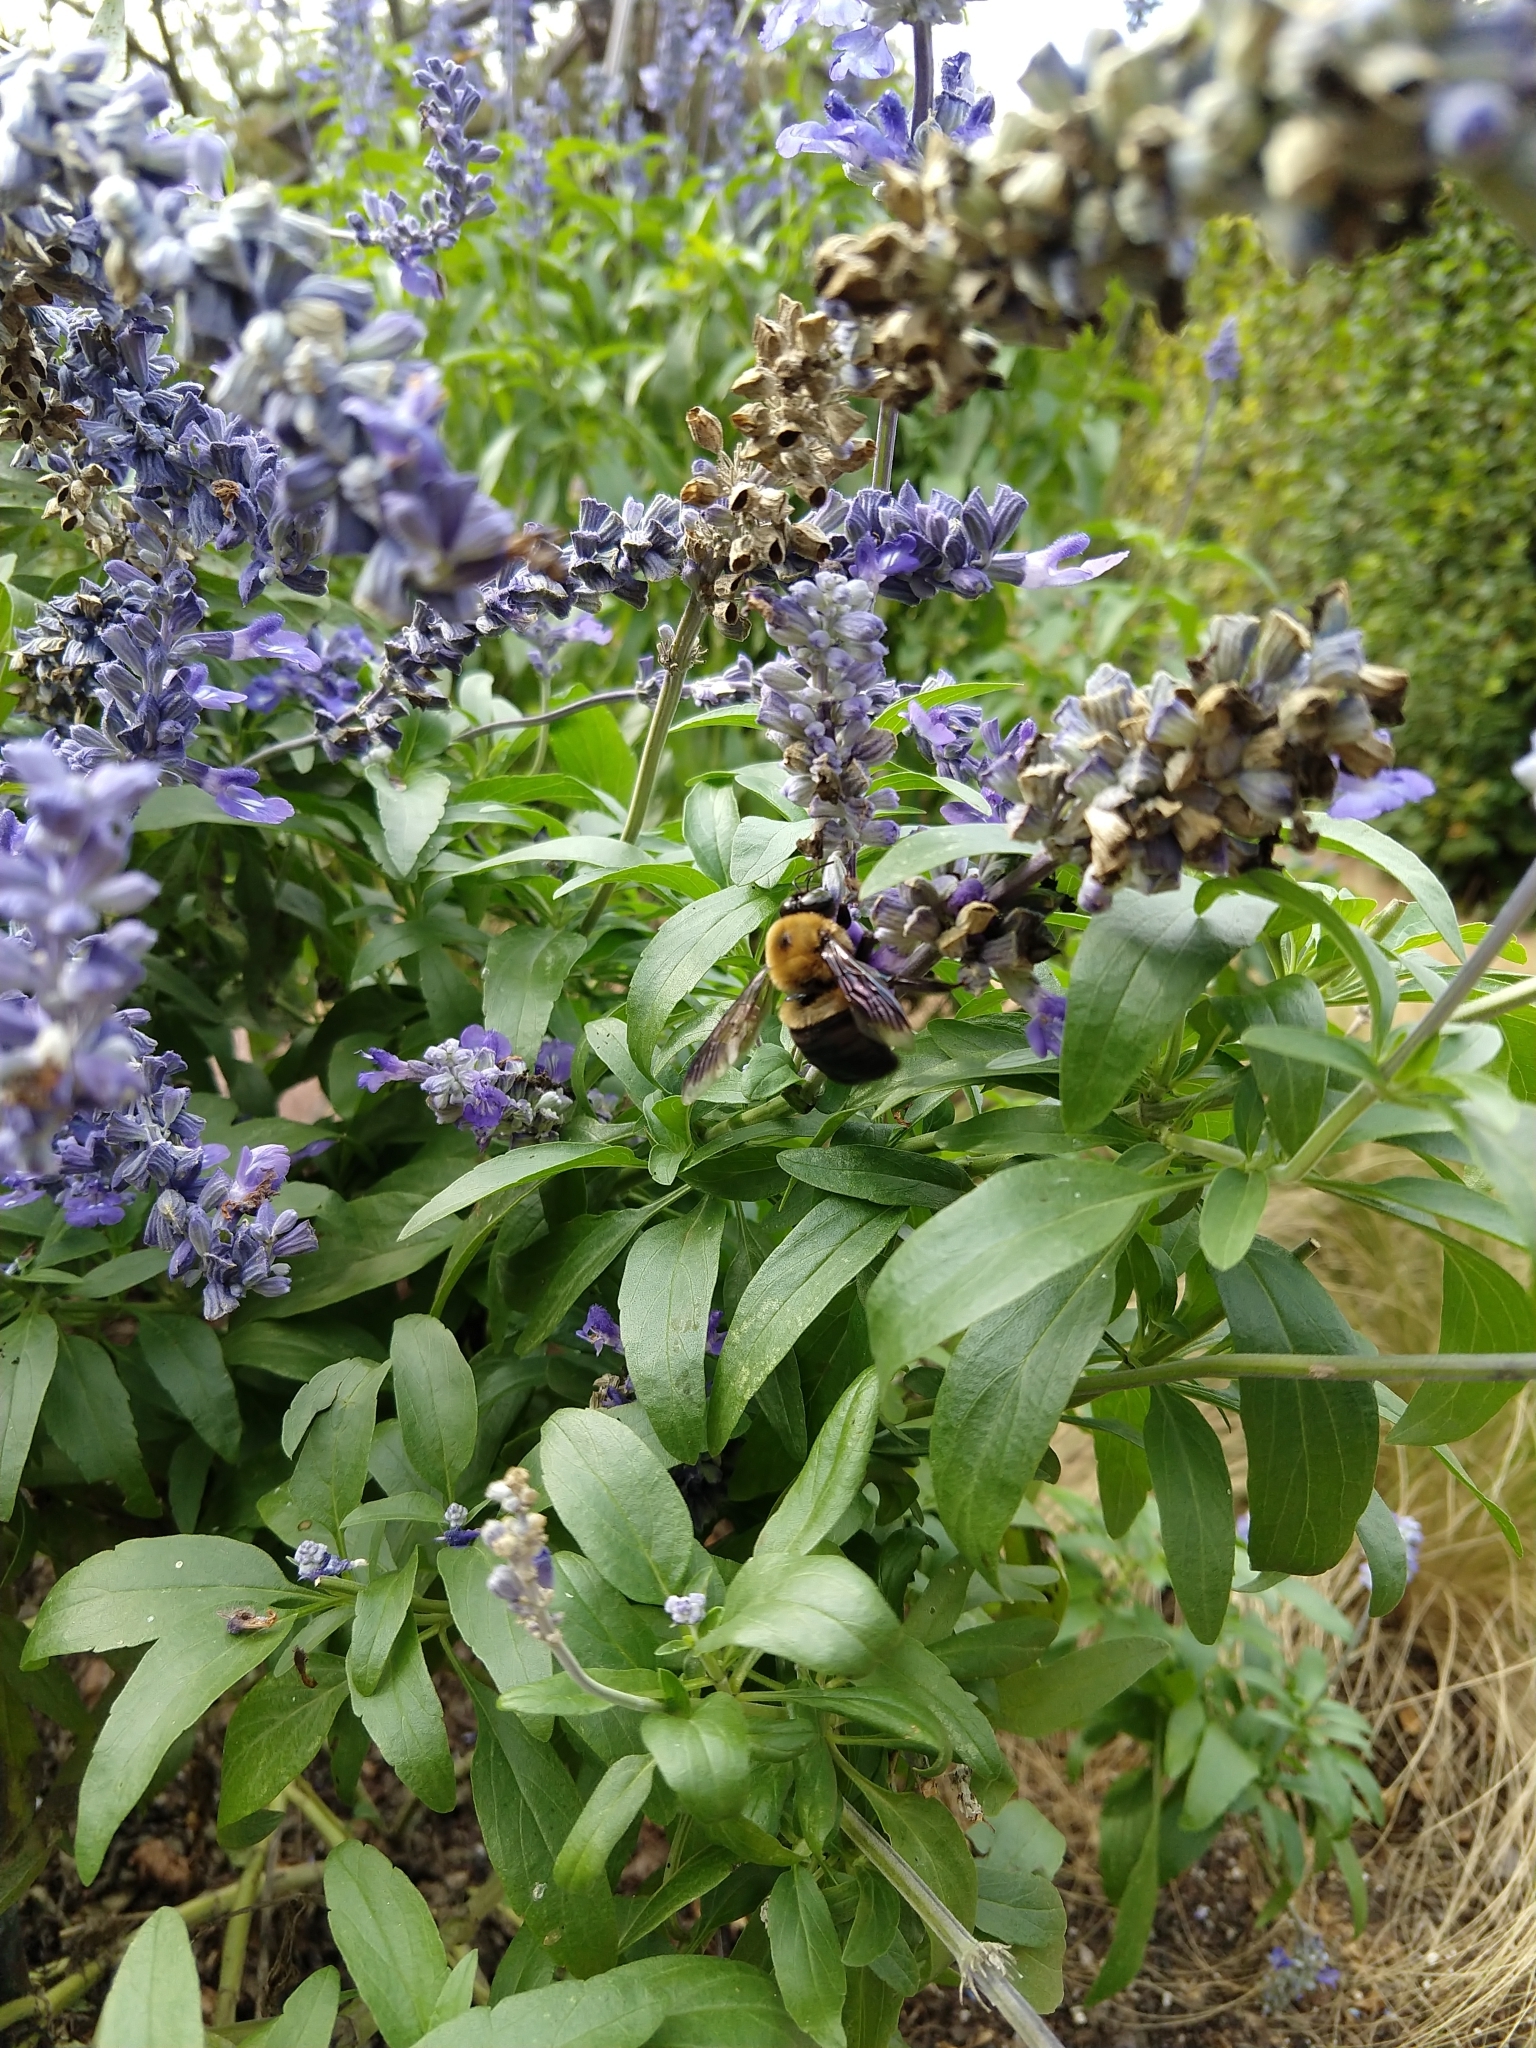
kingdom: Animalia
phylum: Arthropoda
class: Insecta
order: Hymenoptera
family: Apidae
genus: Xylocopa
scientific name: Xylocopa virginica
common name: Carpenter bee
